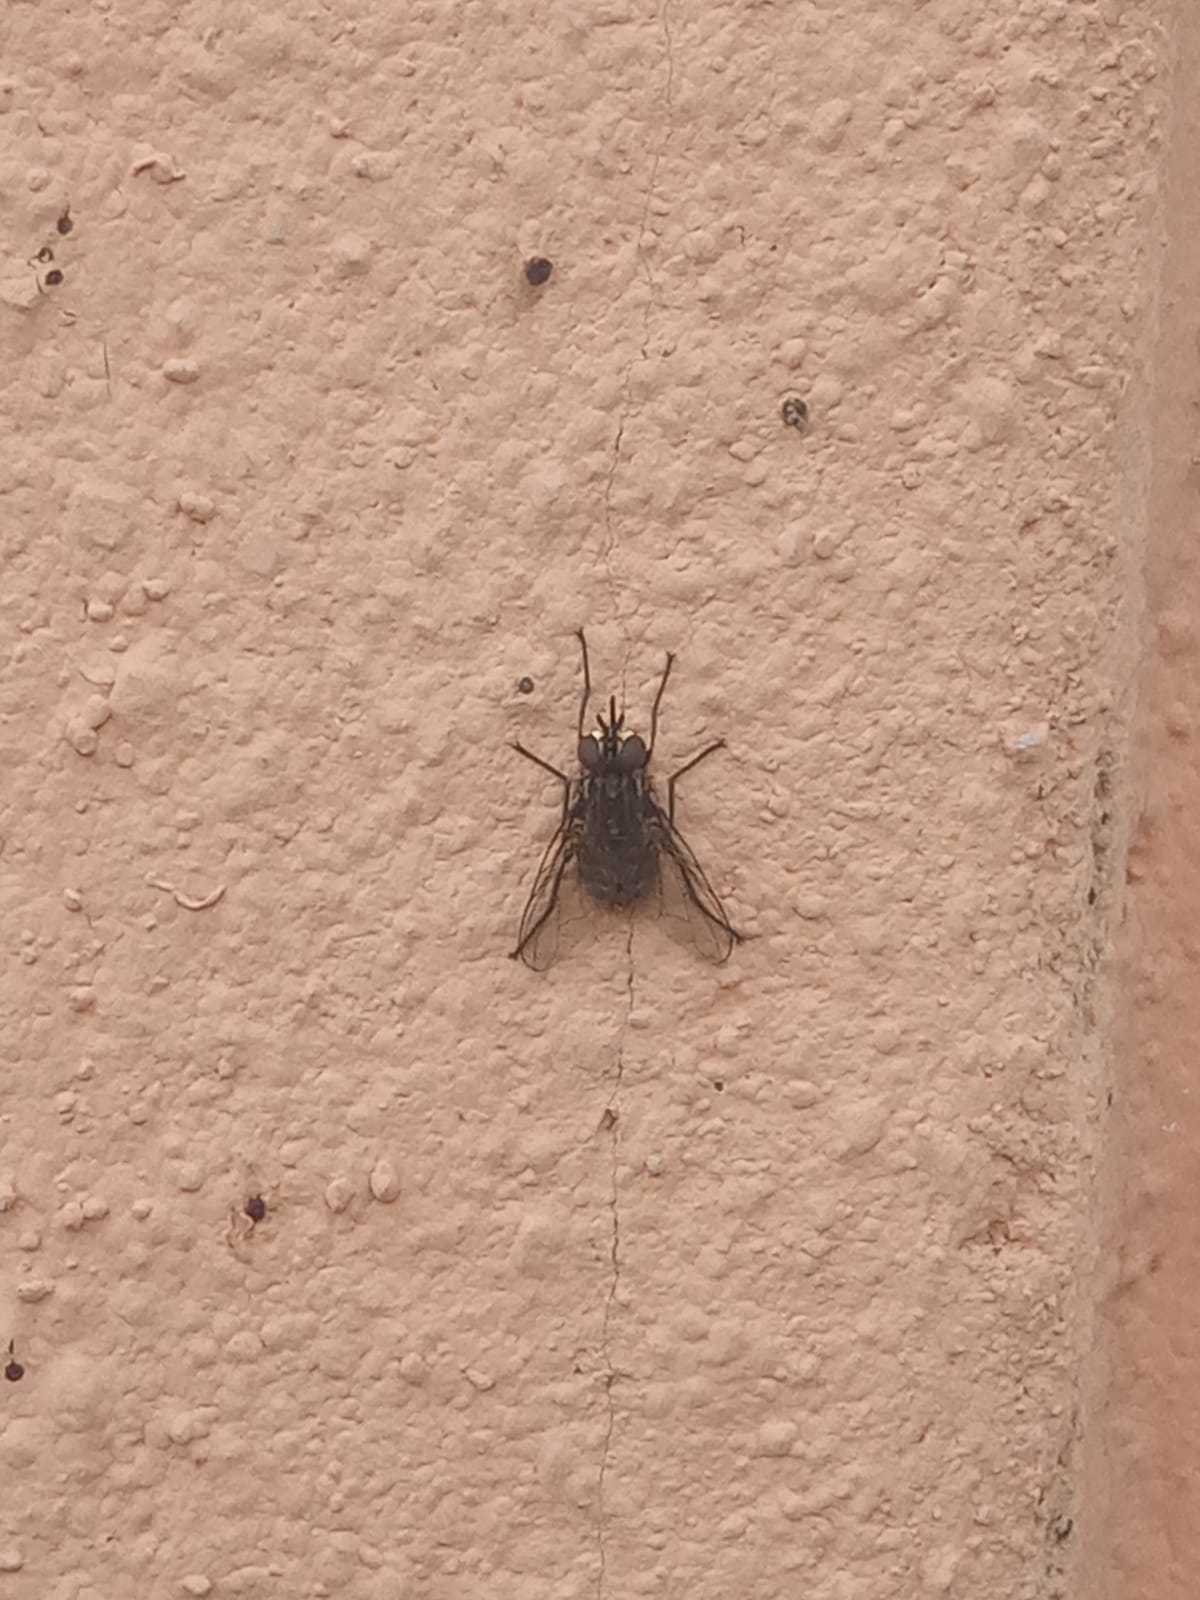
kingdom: Animalia
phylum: Arthropoda
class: Insecta
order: Diptera
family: Muscidae
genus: Stomoxys
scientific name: Stomoxys calcitrans
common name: Stable fly
